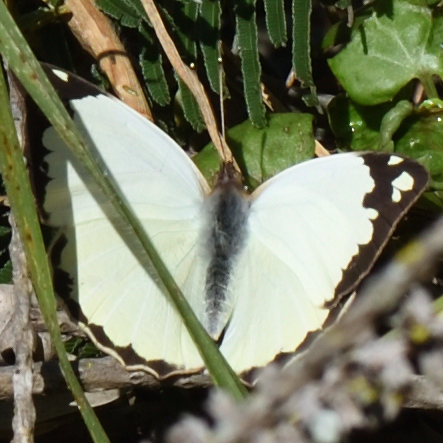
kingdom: Animalia
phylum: Arthropoda
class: Insecta
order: Lepidoptera
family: Pieridae
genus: Eronia
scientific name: Eronia cleodora
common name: Vine-leaf vagrant
